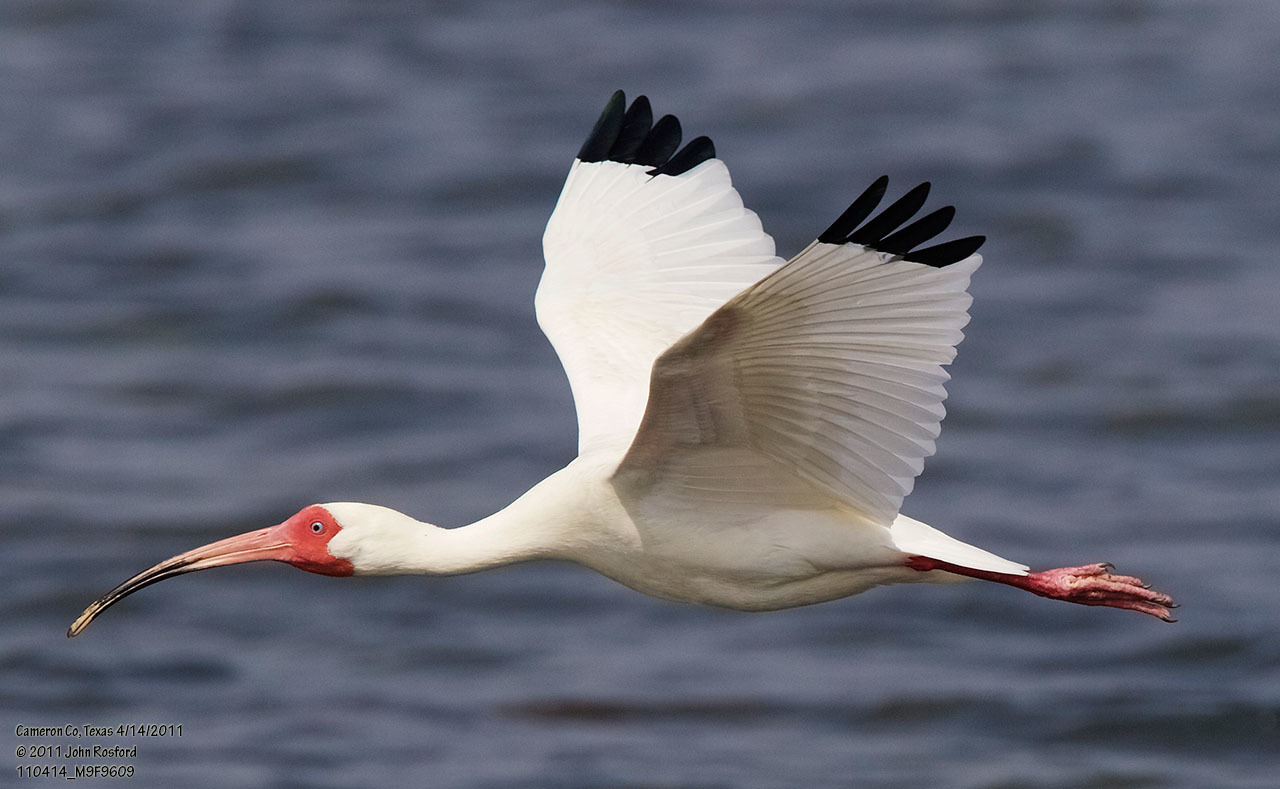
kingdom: Animalia
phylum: Chordata
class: Aves
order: Pelecaniformes
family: Threskiornithidae
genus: Eudocimus
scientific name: Eudocimus albus
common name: White ibis
